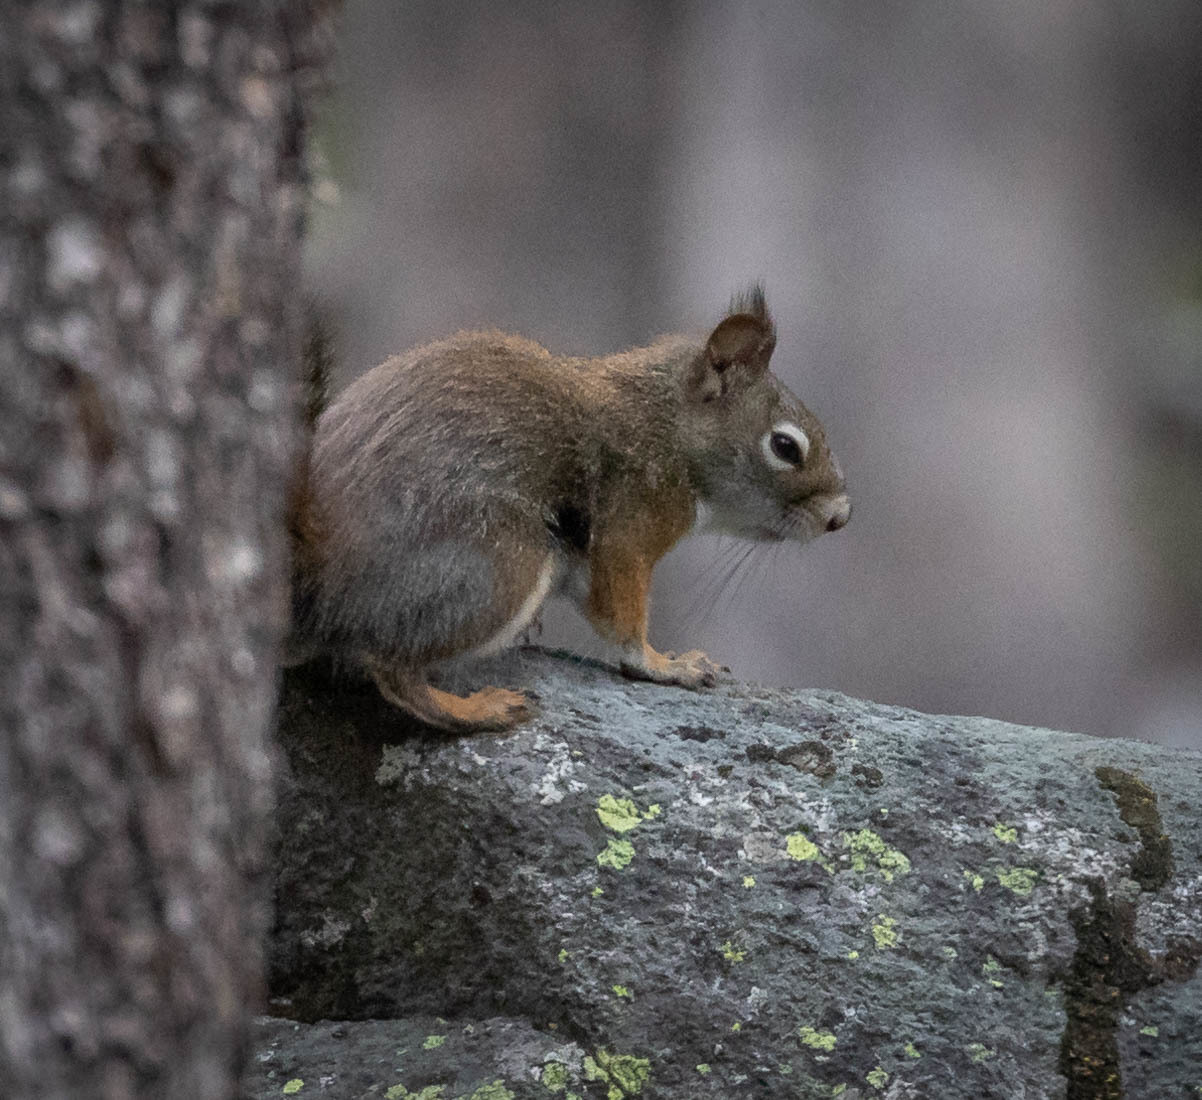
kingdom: Animalia
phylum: Chordata
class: Mammalia
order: Rodentia
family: Sciuridae
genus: Tamiasciurus
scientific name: Tamiasciurus hudsonicus
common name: Red squirrel
